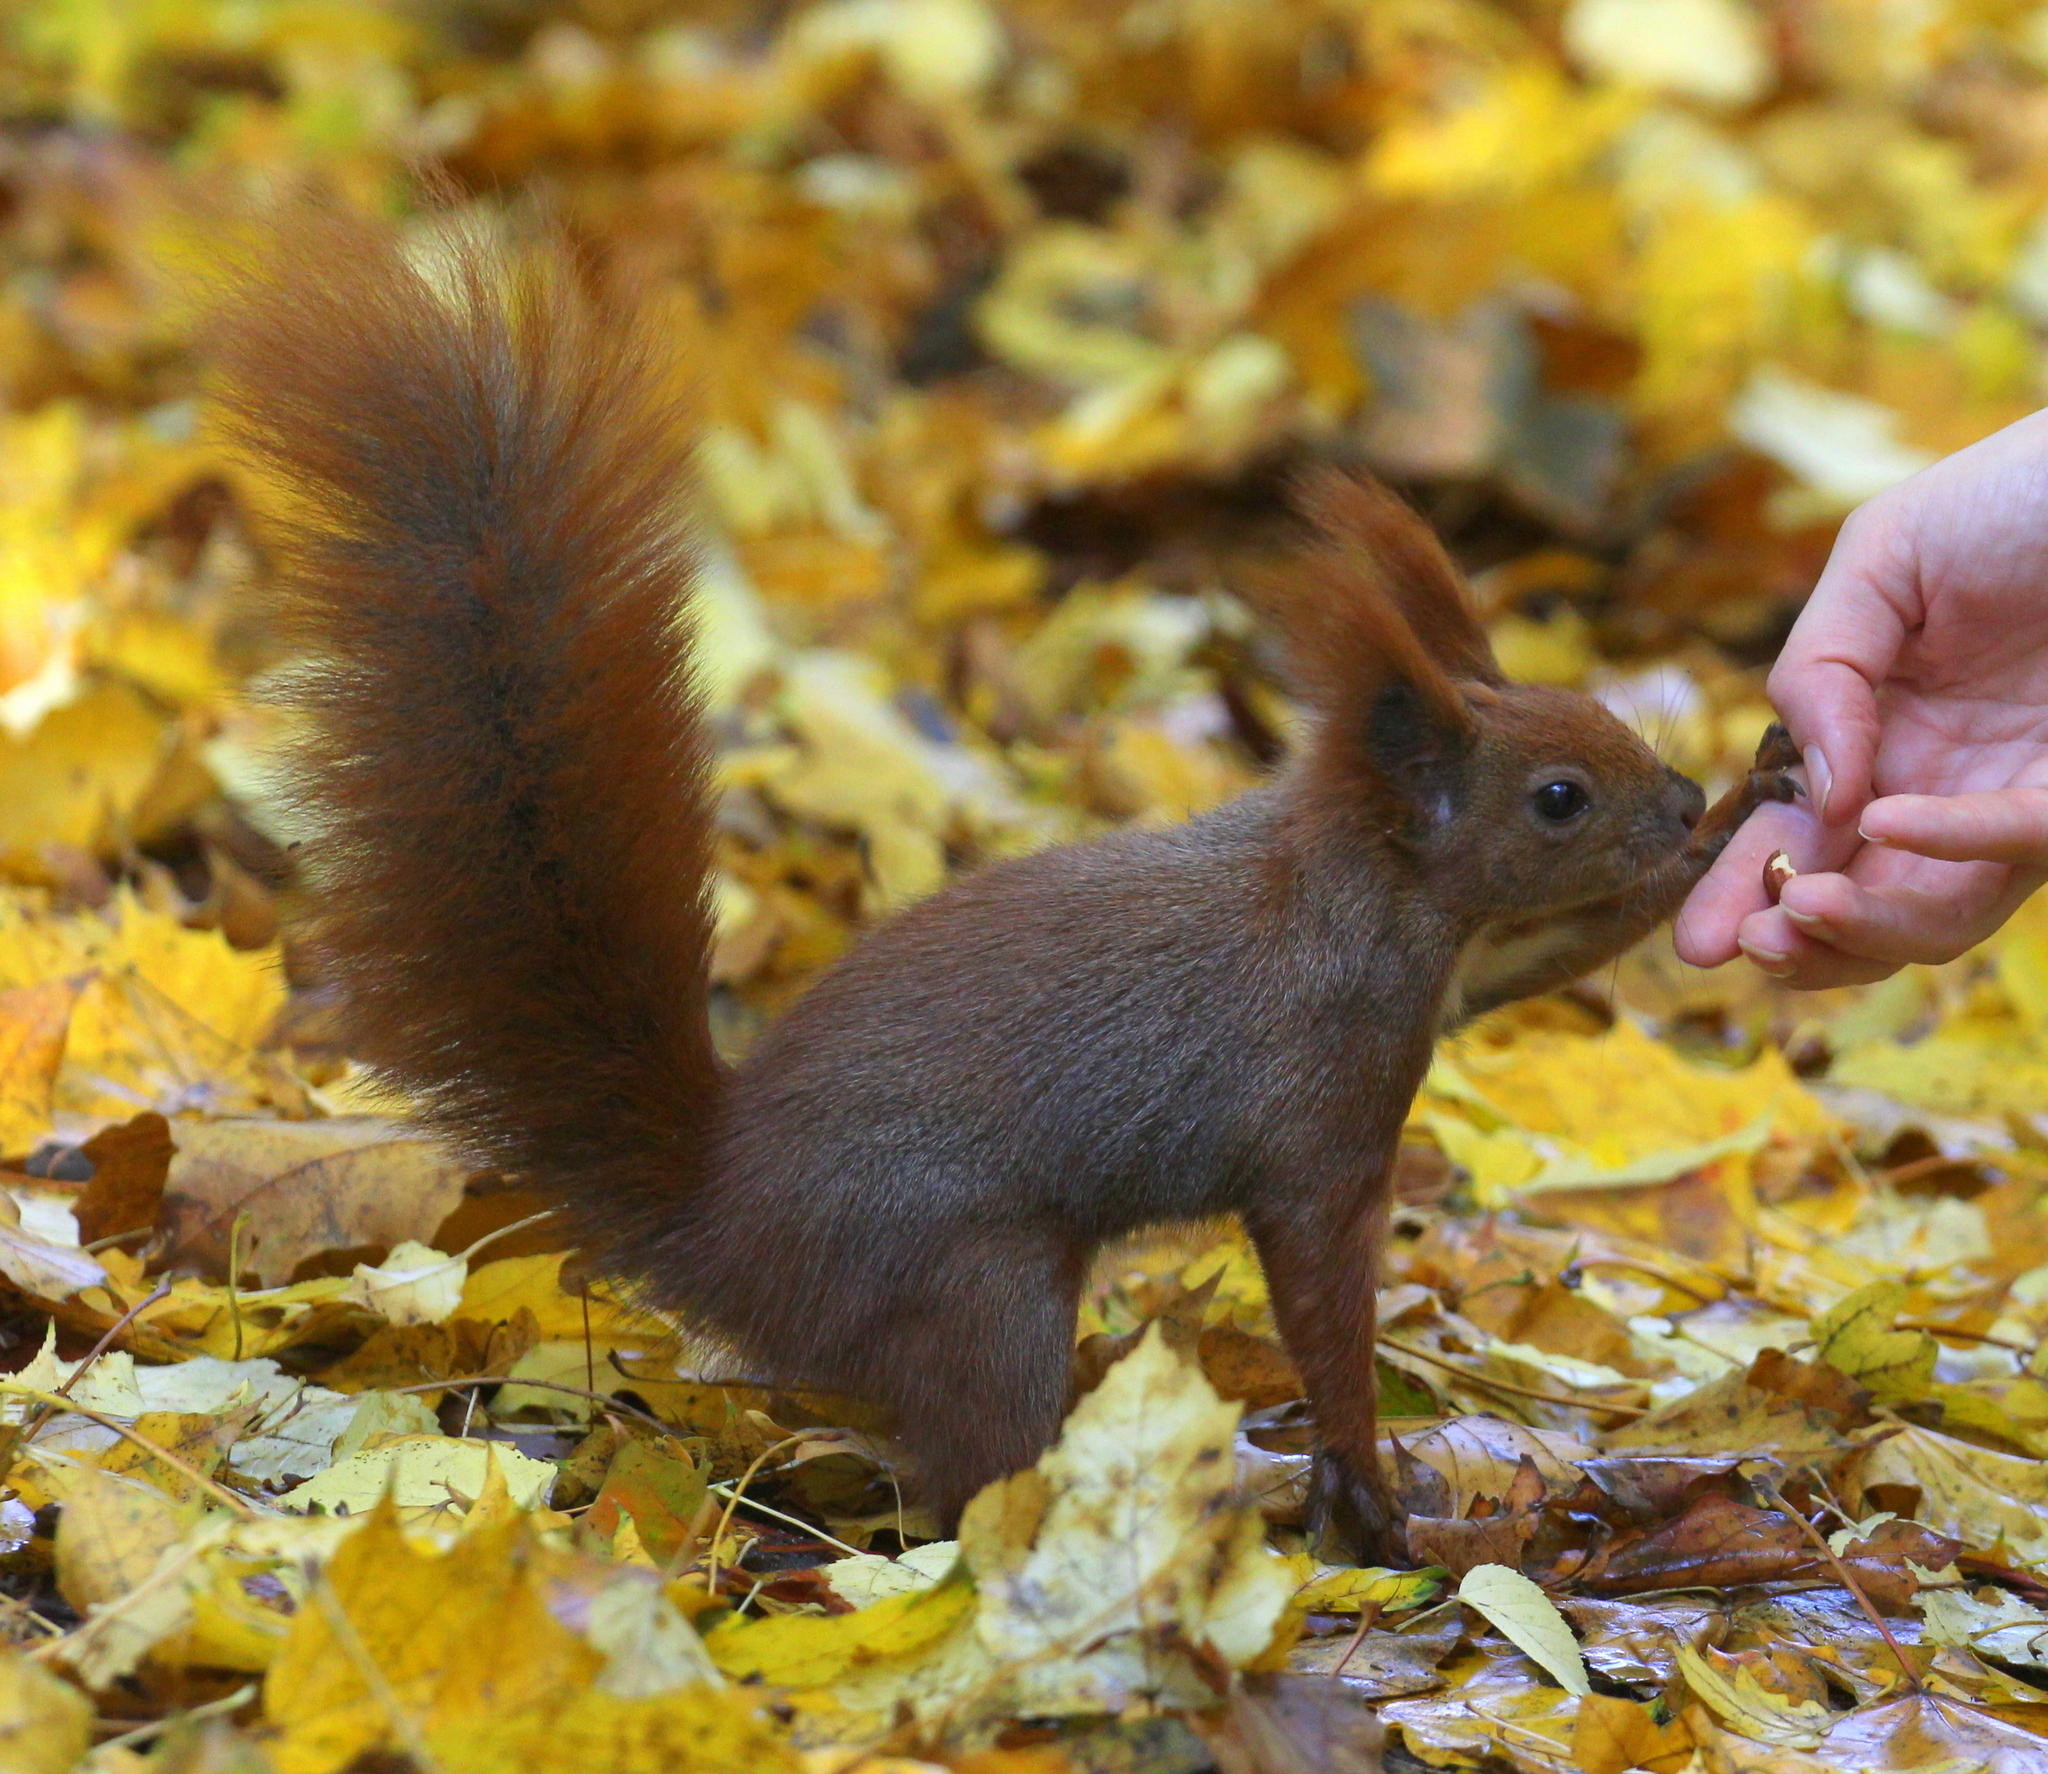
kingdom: Animalia
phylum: Chordata
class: Mammalia
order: Rodentia
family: Sciuridae
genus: Sciurus
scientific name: Sciurus vulgaris
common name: Eurasian red squirrel
